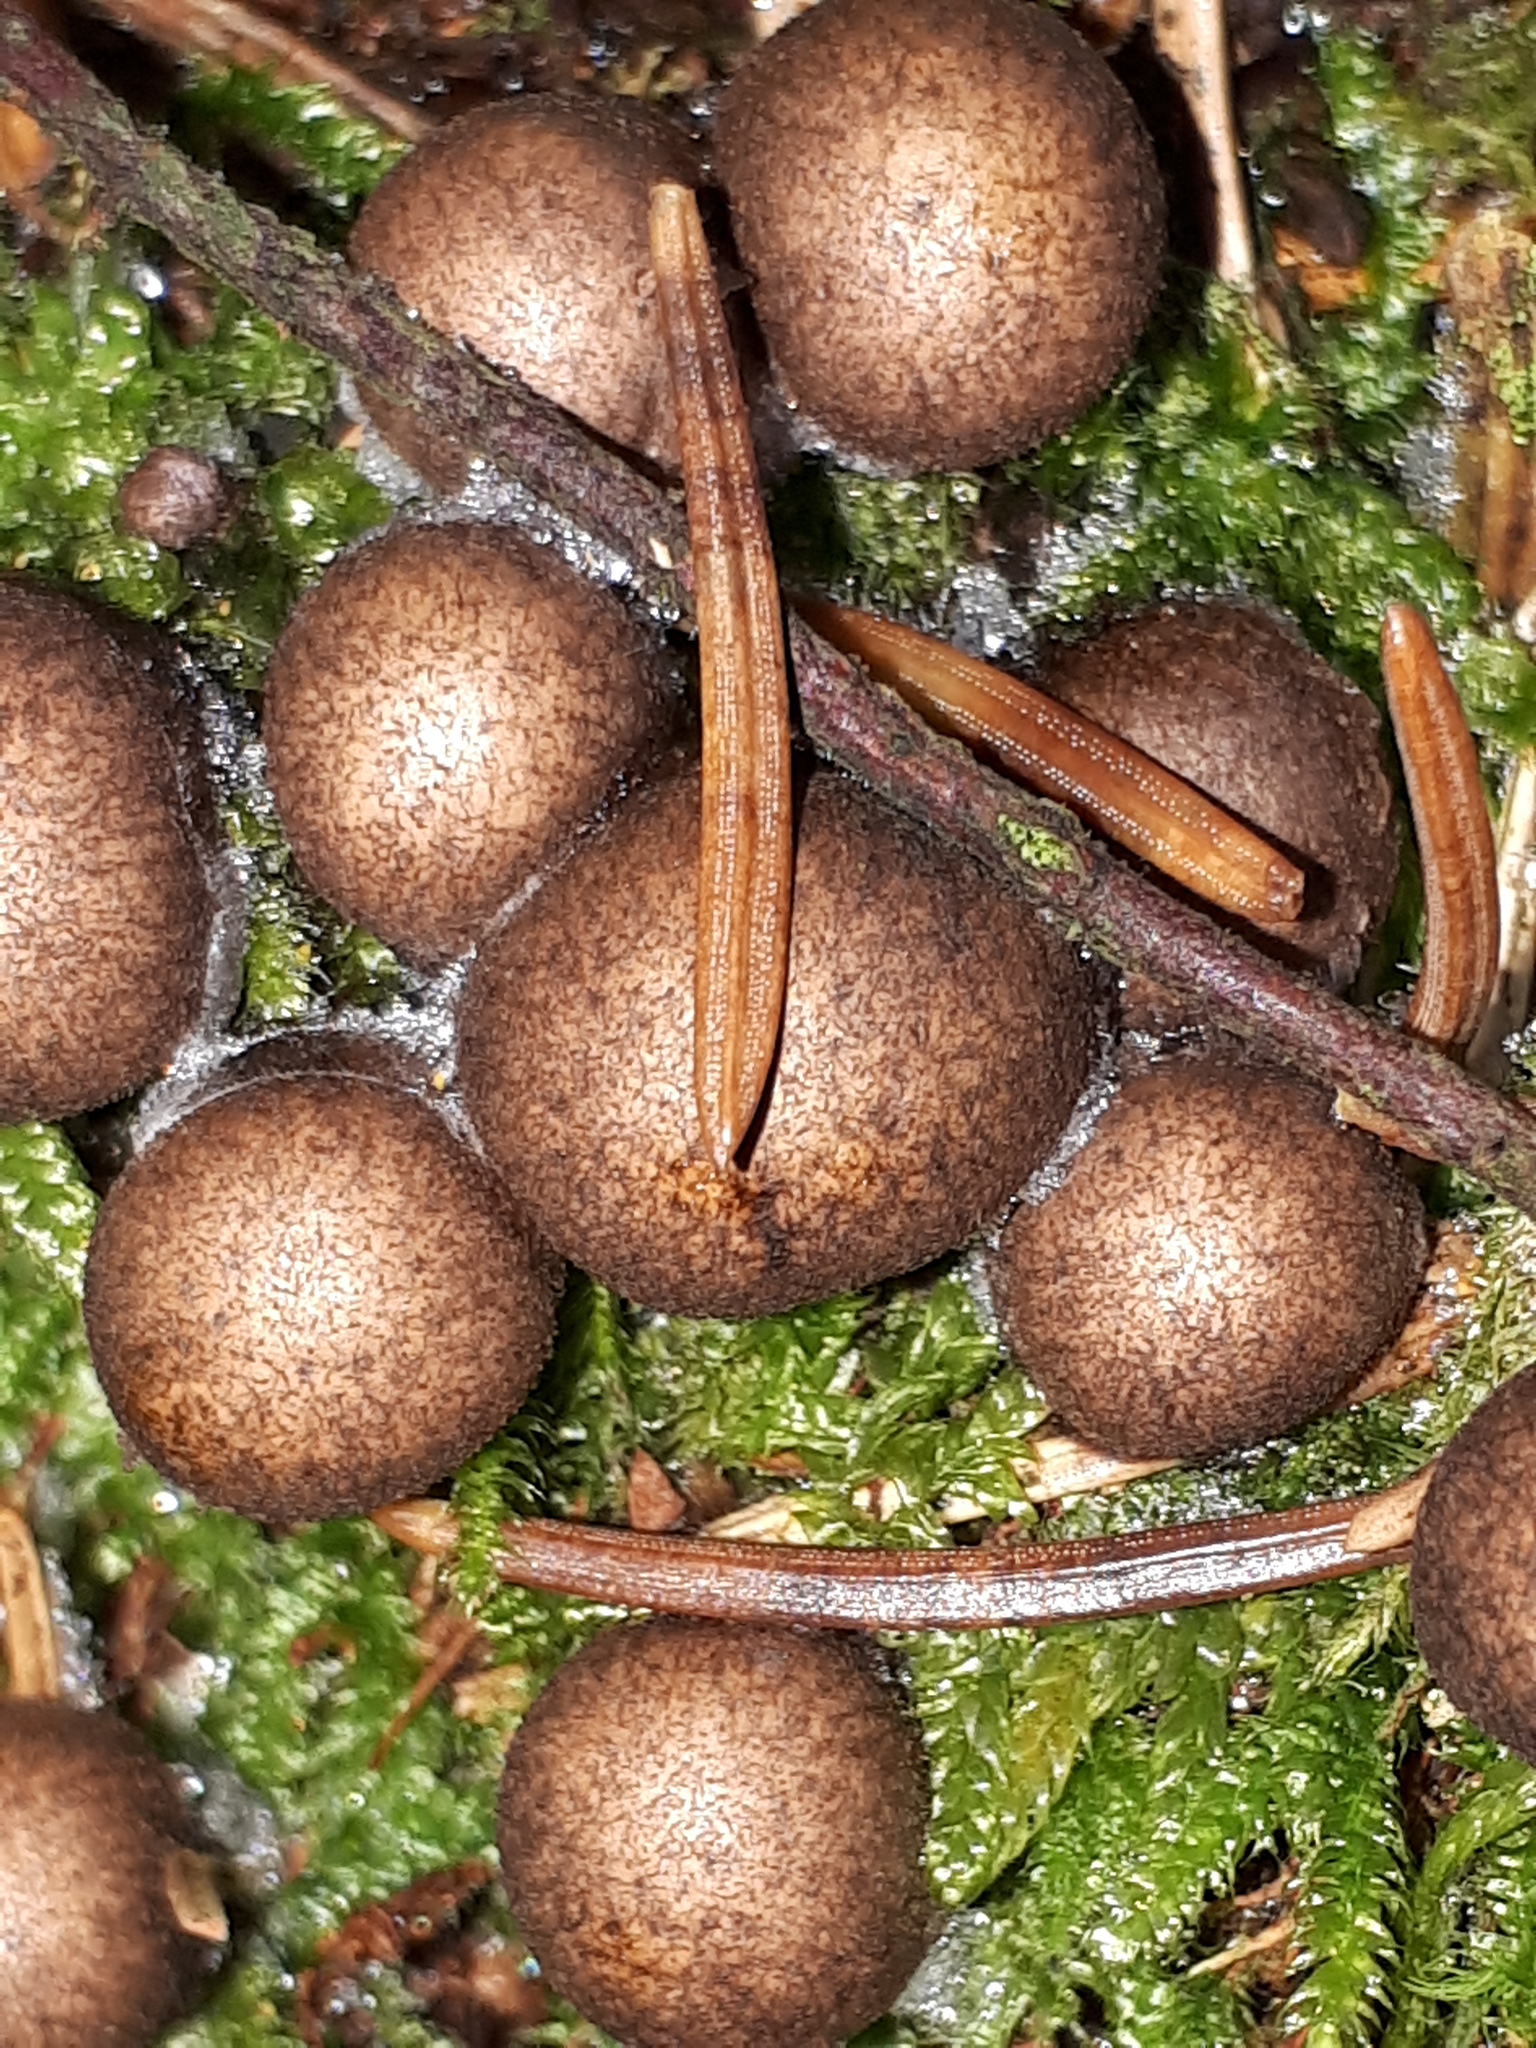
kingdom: Protozoa
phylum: Mycetozoa
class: Myxomycetes
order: Cribrariales
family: Tubiferaceae
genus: Lycogala
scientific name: Lycogala epidendrum
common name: Wolf's milk
